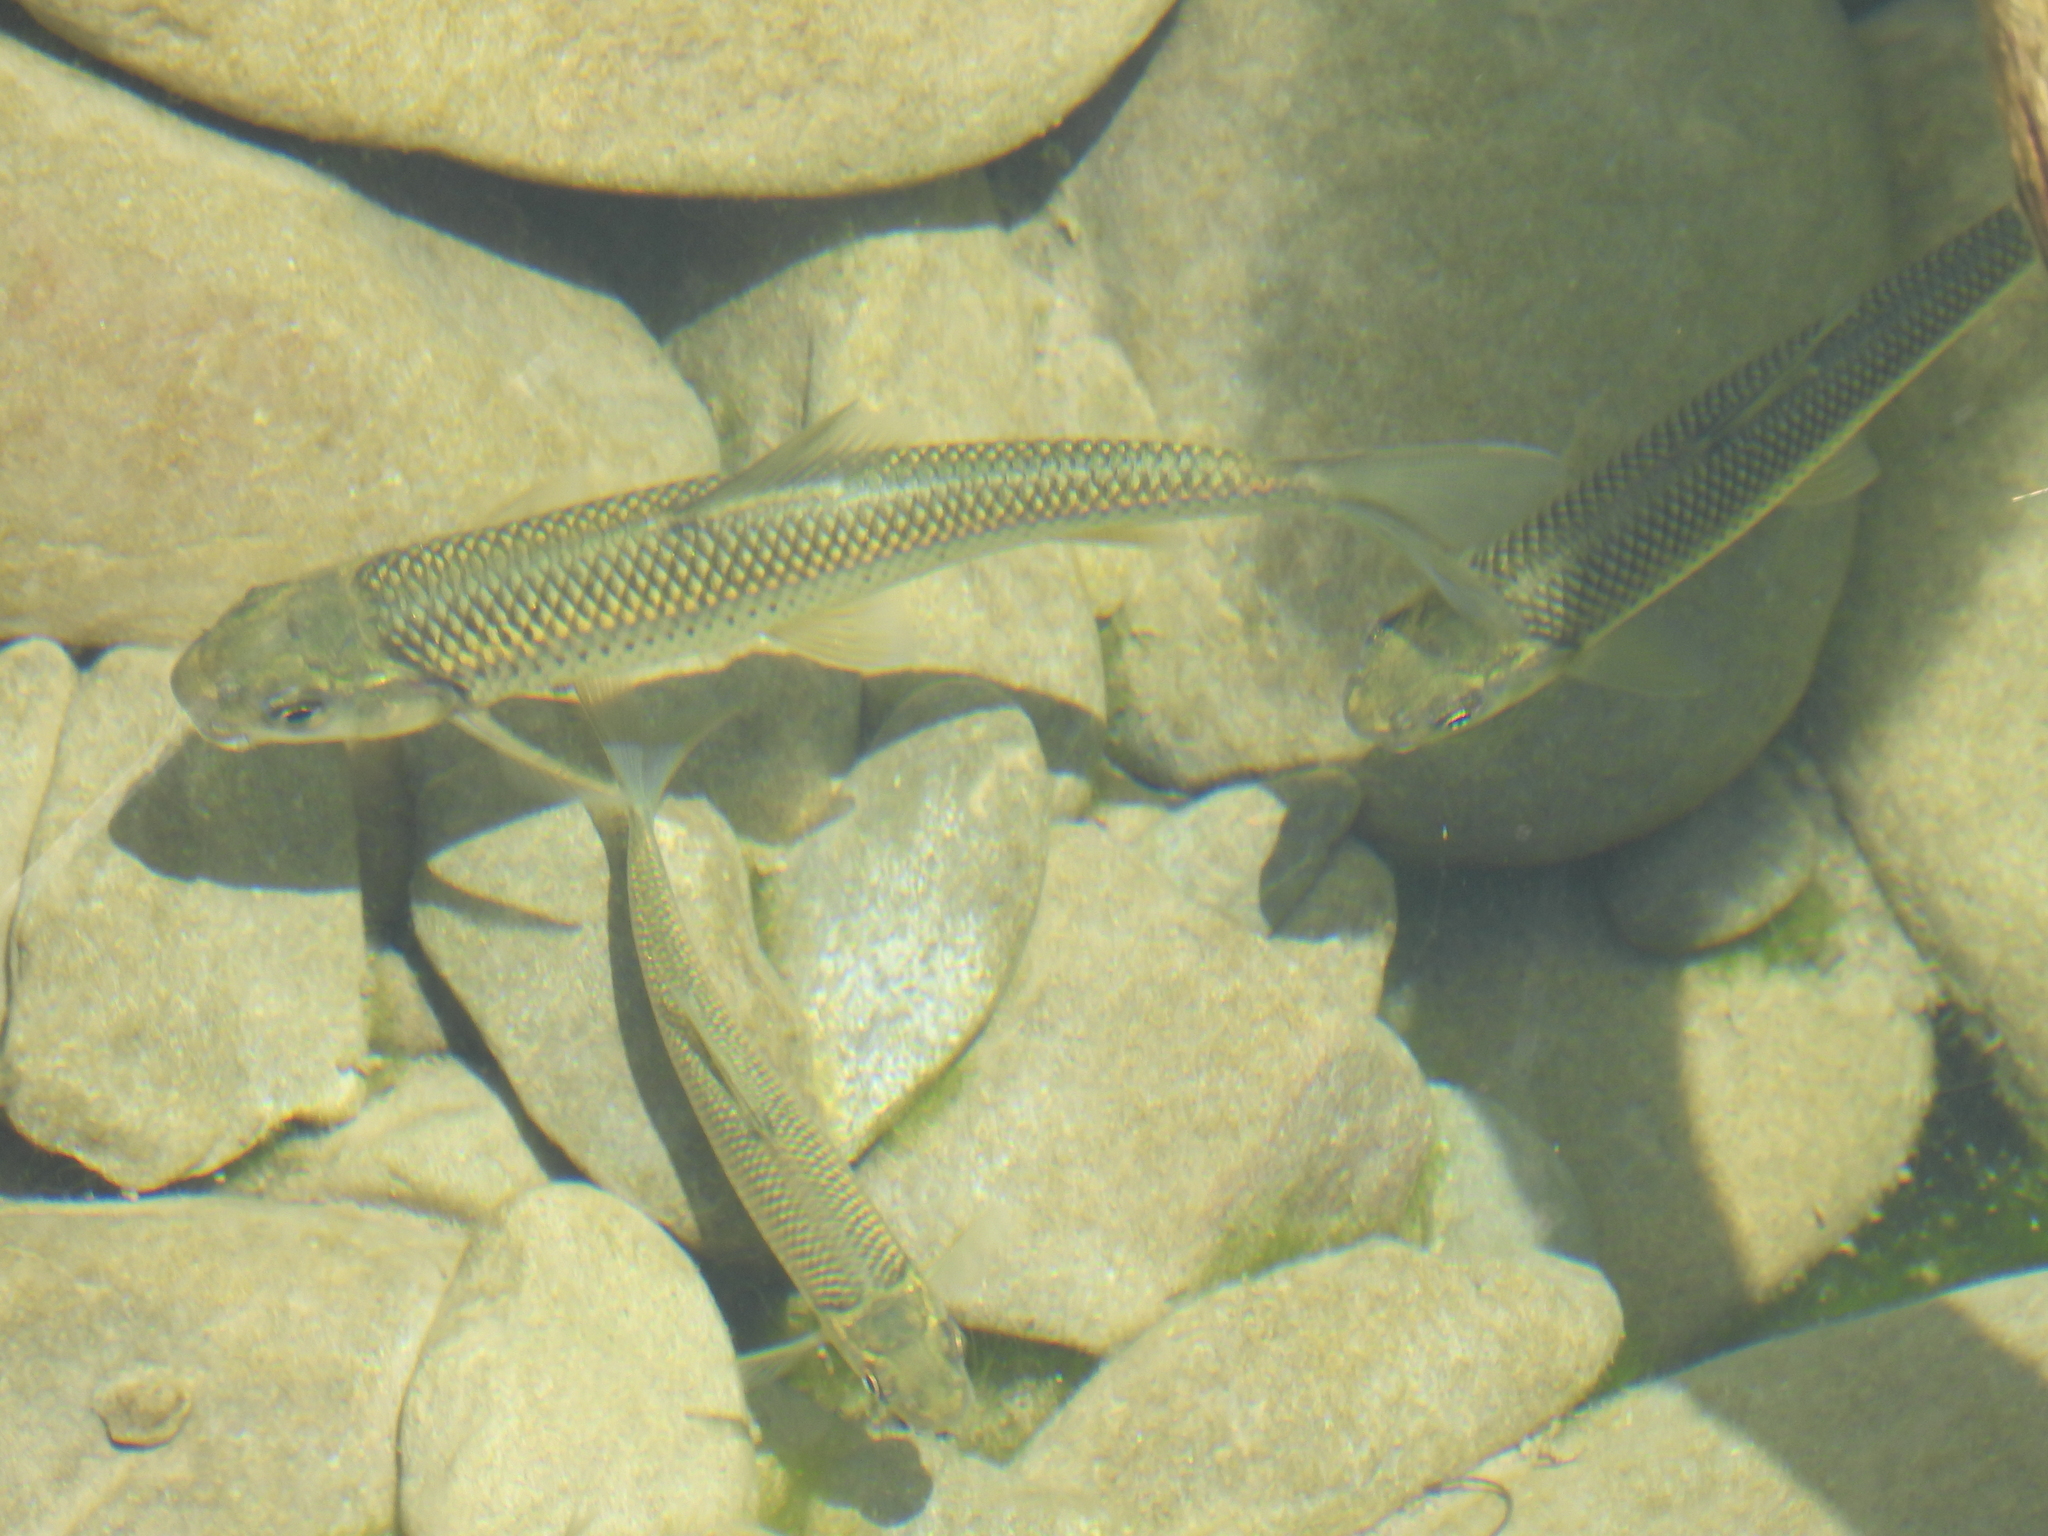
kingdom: Animalia
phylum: Chordata
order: Cypriniformes
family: Cyprinidae
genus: Onychostoma
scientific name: Onychostoma barbatulum
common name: Taiwan shoveljaw carp
